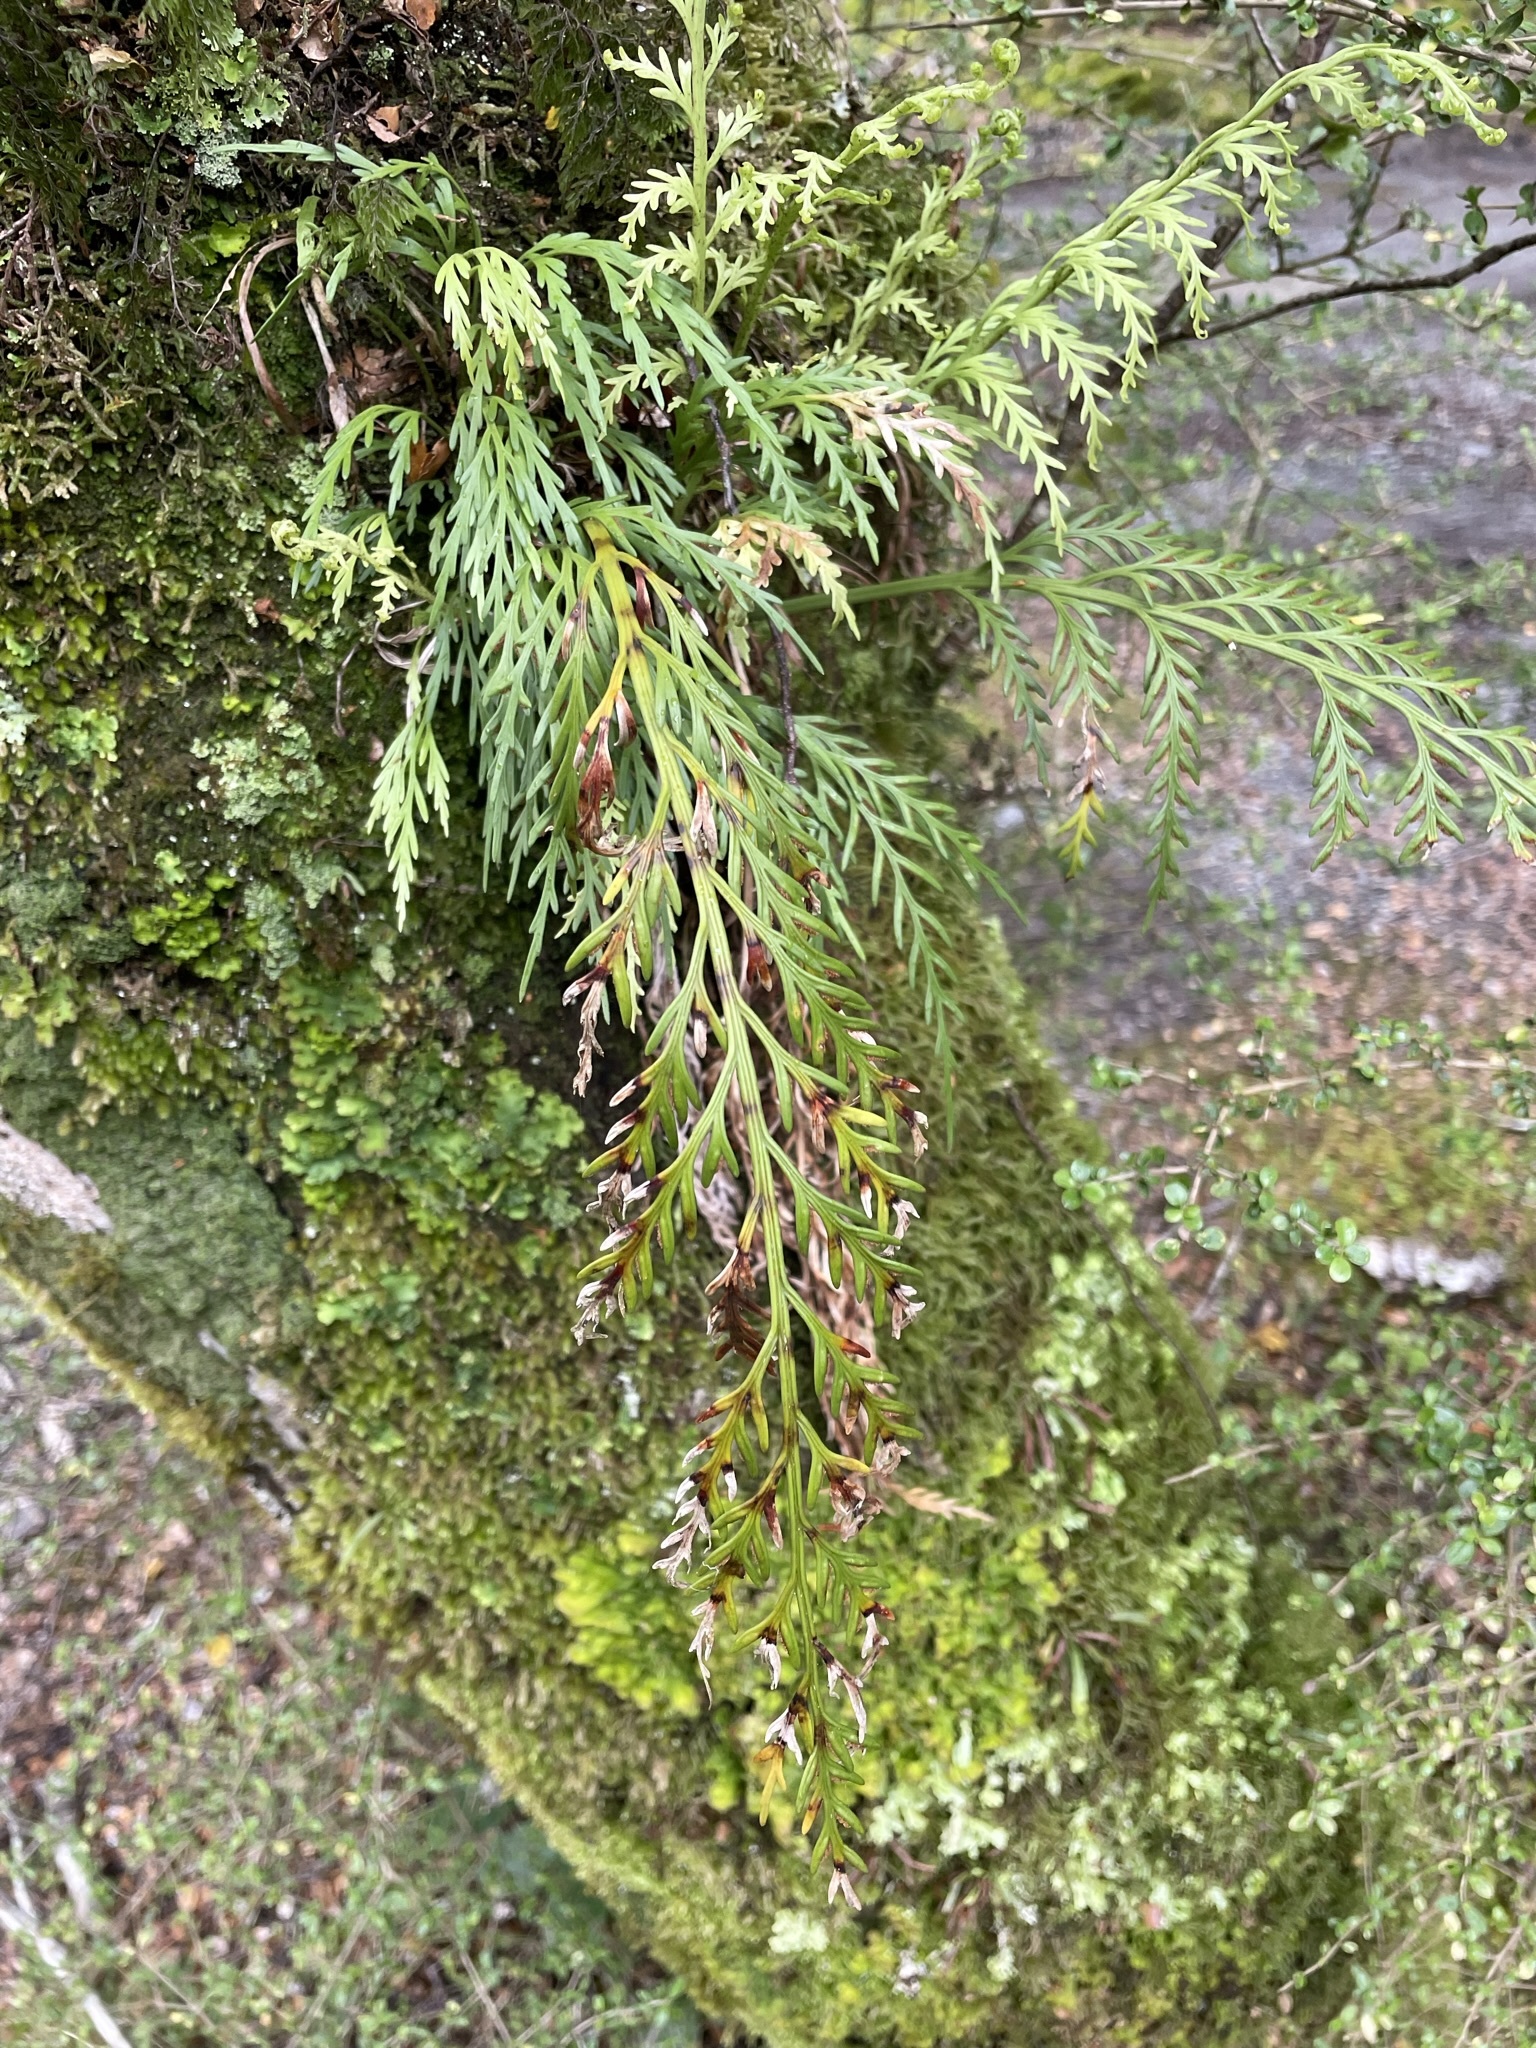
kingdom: Plantae
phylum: Tracheophyta
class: Polypodiopsida
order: Polypodiales
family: Aspleniaceae
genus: Asplenium
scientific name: Asplenium flaccidum
